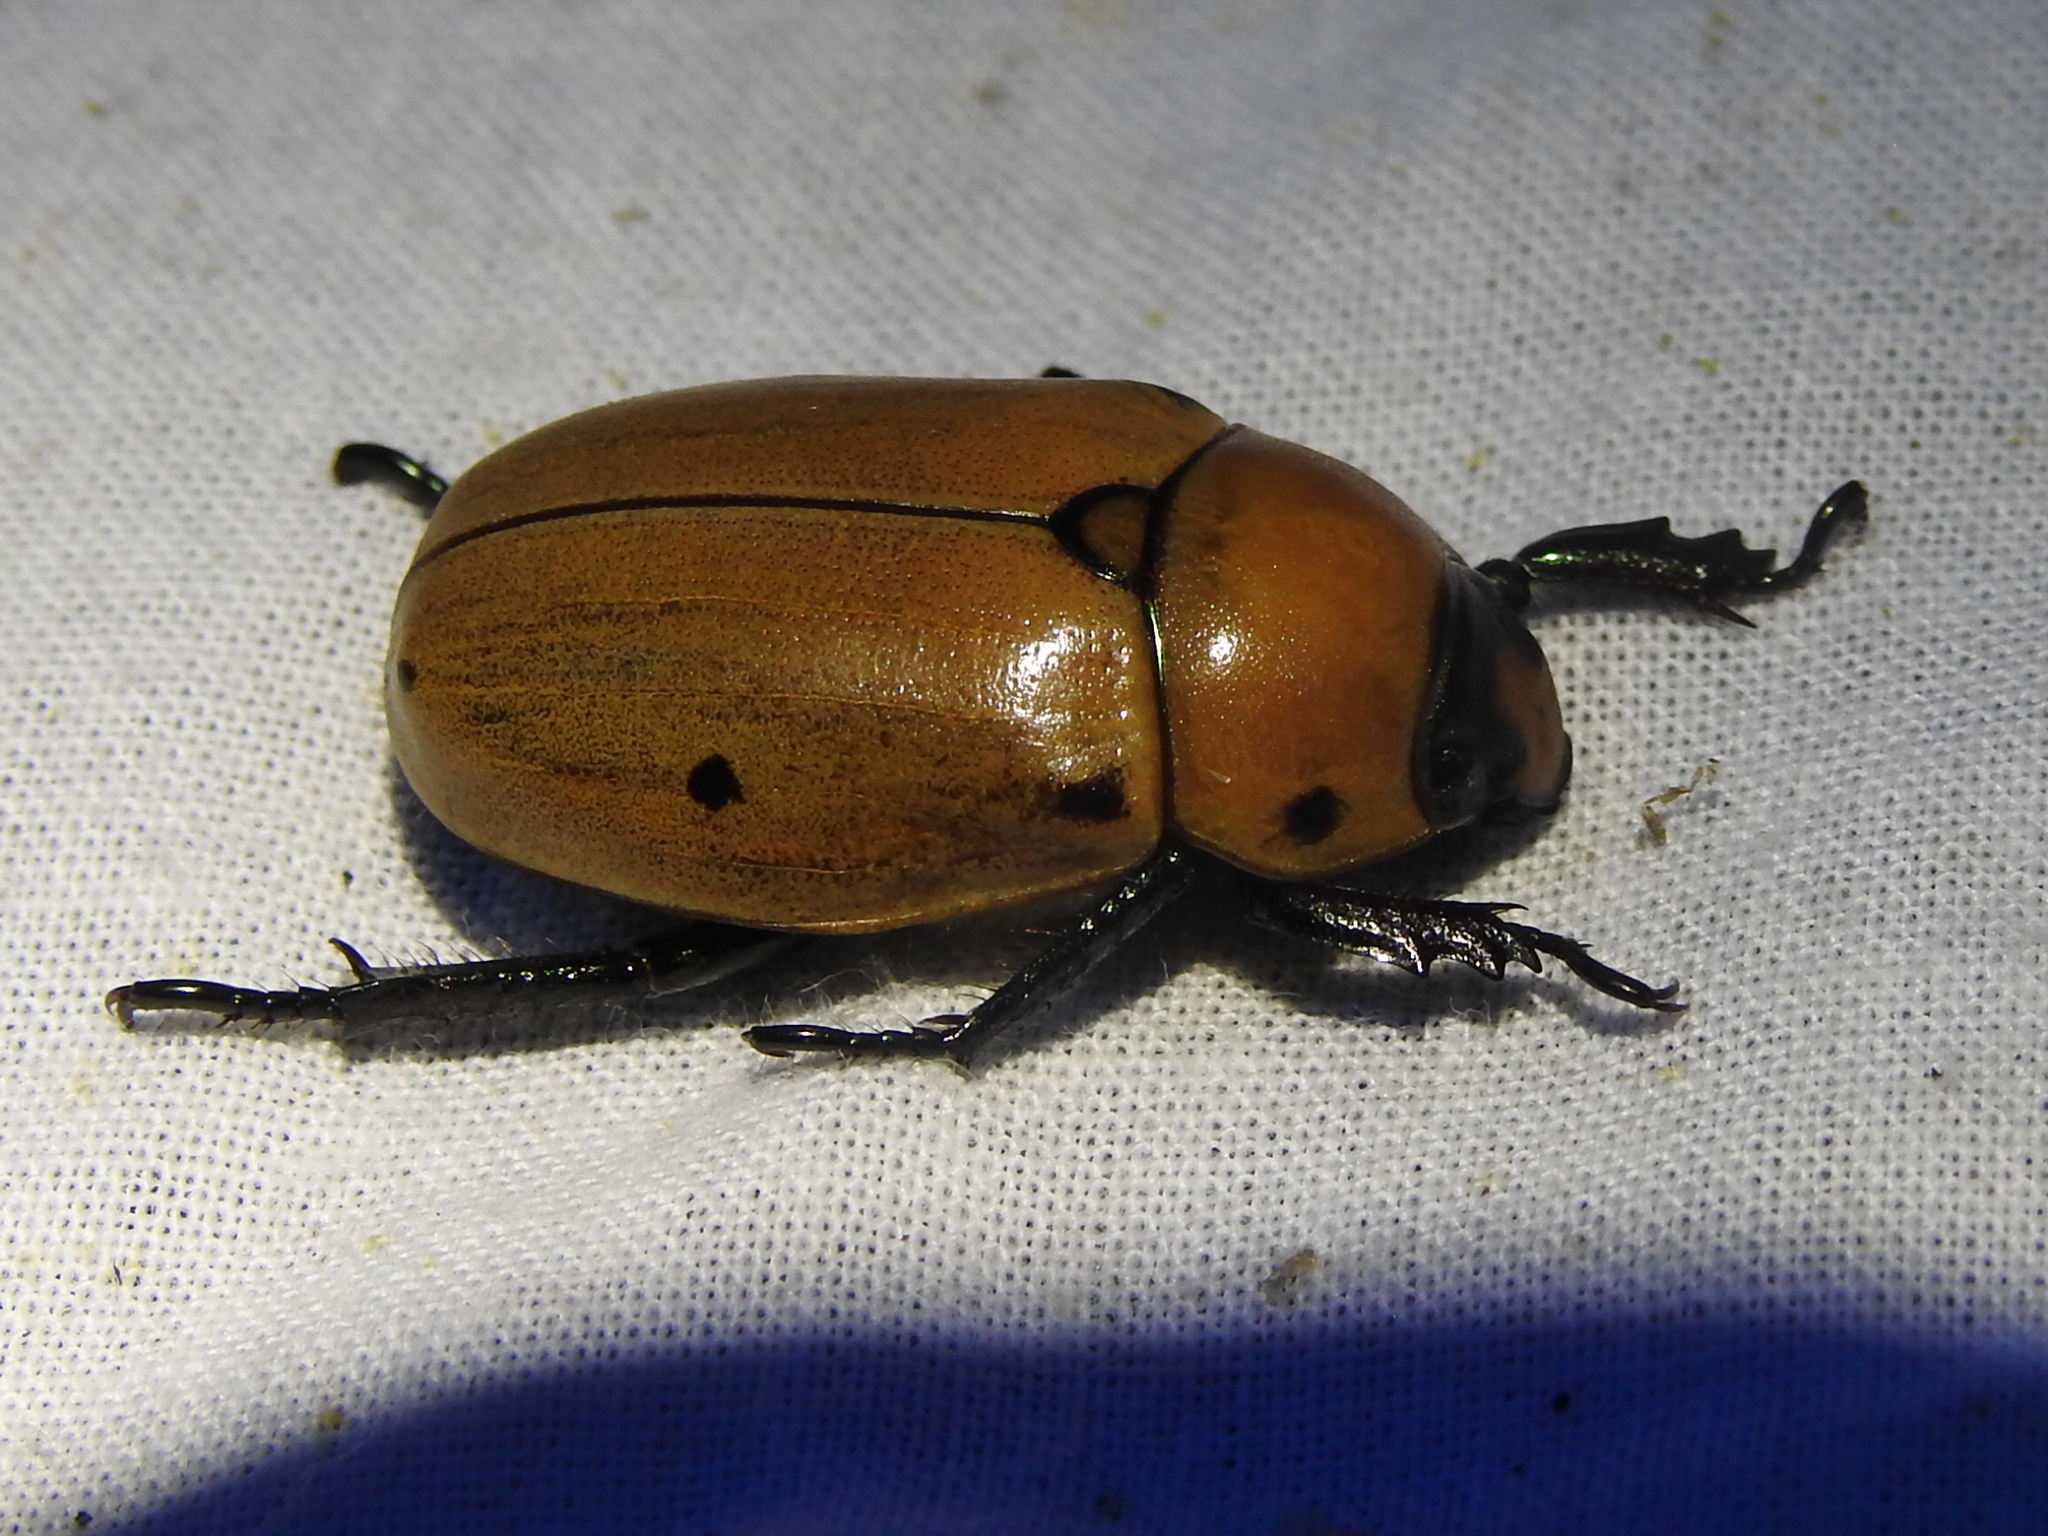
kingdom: Animalia
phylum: Arthropoda
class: Insecta
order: Coleoptera
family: Scarabaeidae
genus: Pelidnota
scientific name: Pelidnota punctata
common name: Grapevine beetle
